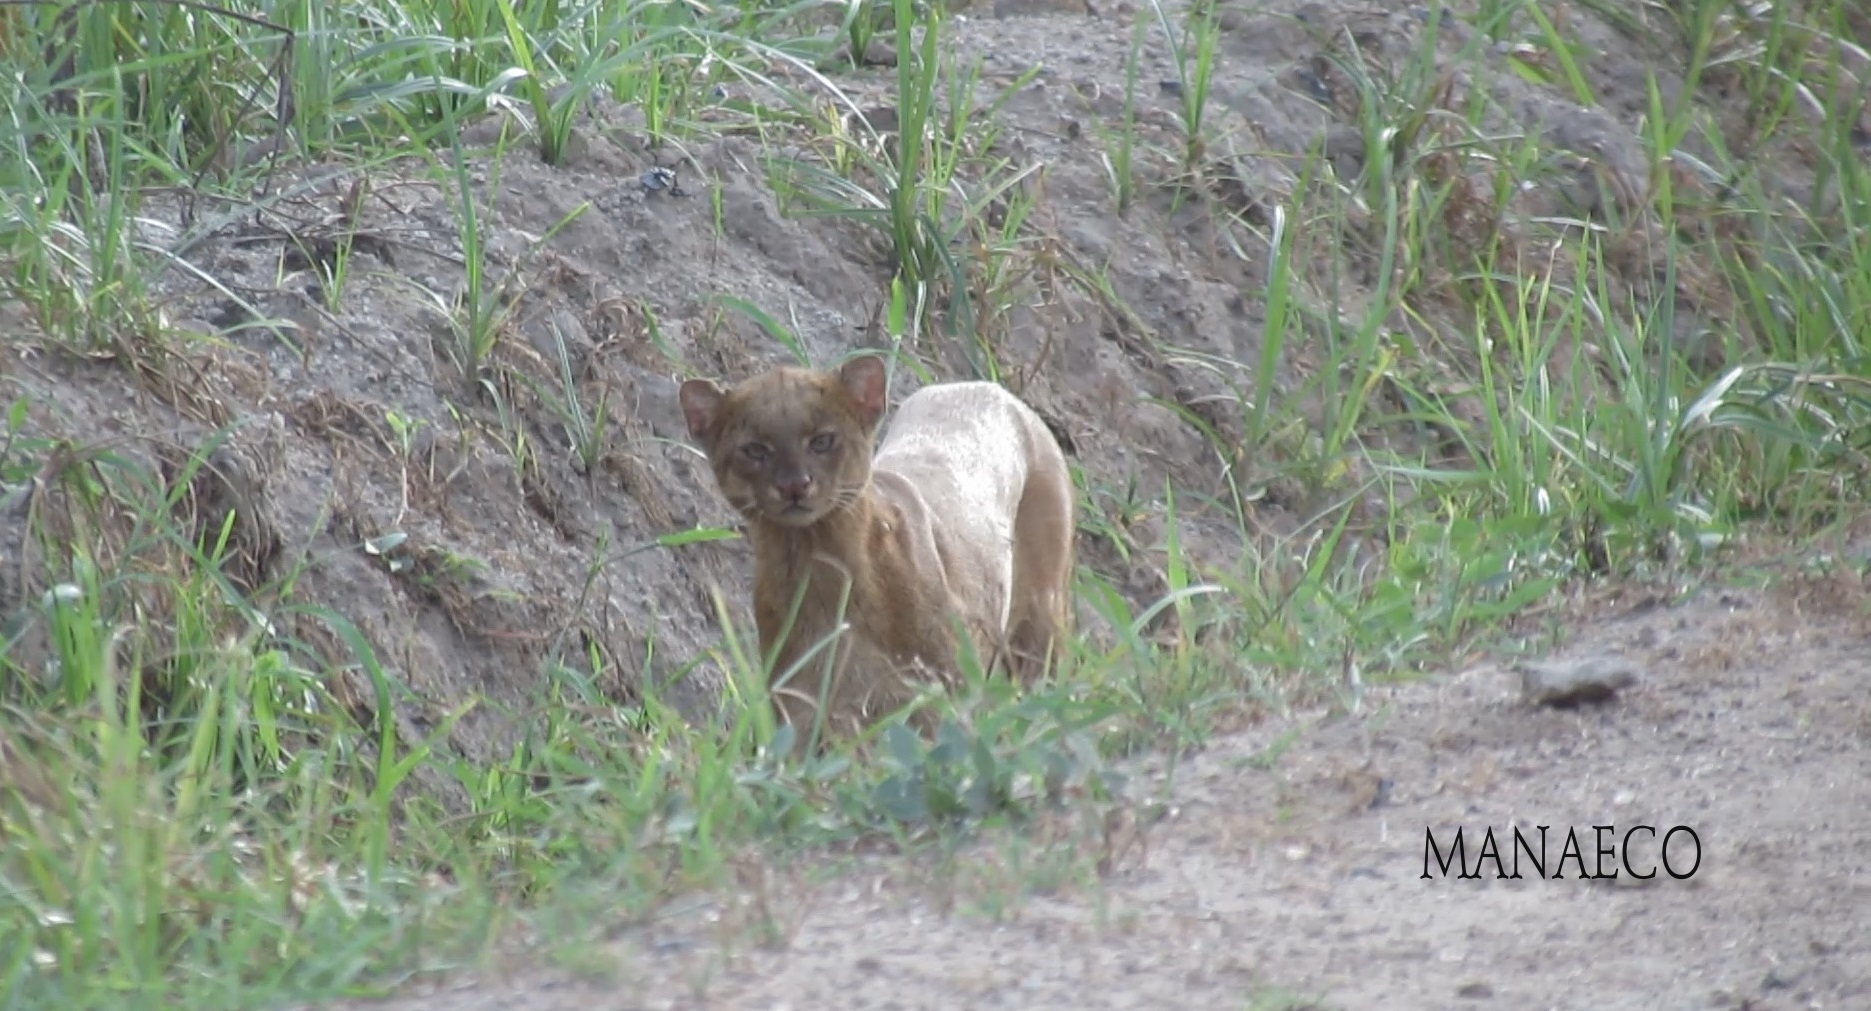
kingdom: Animalia
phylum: Chordata
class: Mammalia
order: Carnivora
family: Felidae
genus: Puma
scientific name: Puma yagouaroundi
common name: Jaguarundi
